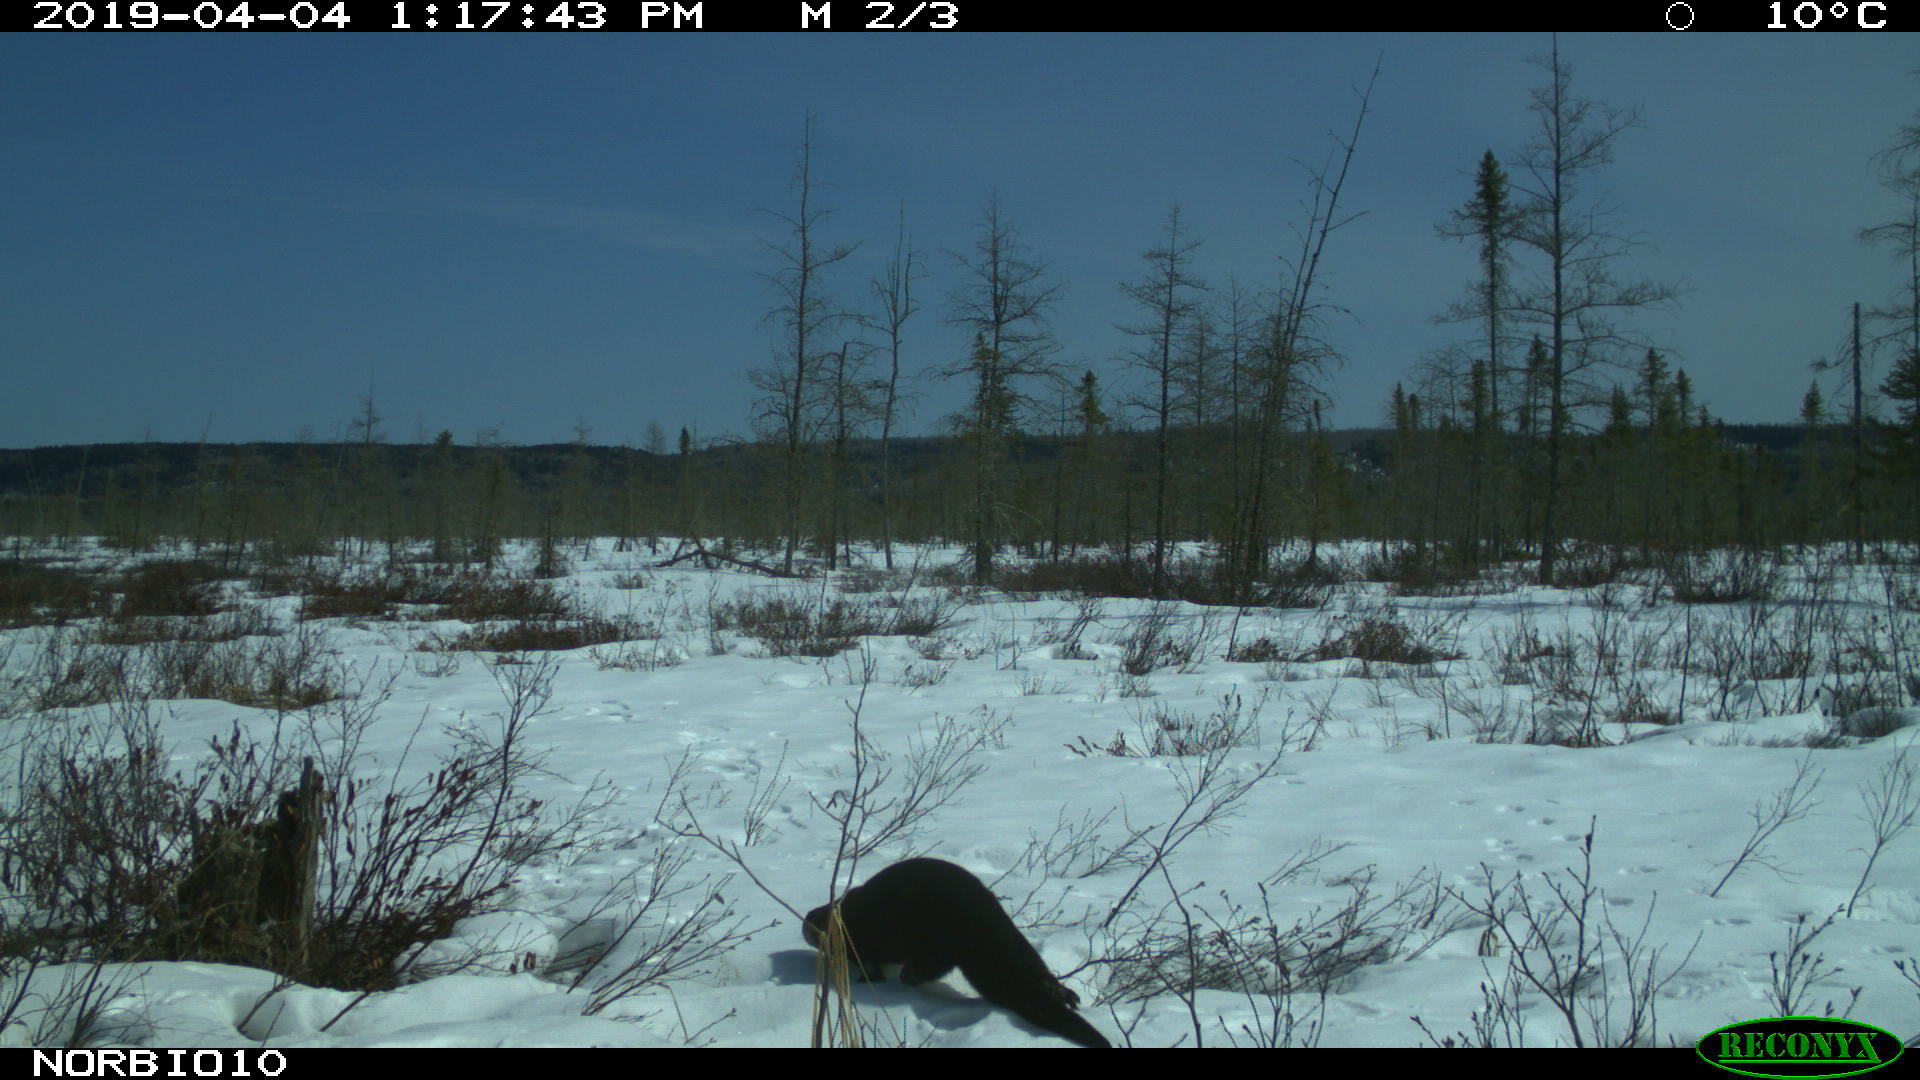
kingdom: Animalia
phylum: Chordata
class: Mammalia
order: Carnivora
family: Mustelidae
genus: Lontra
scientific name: Lontra canadensis
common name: North american river otter
